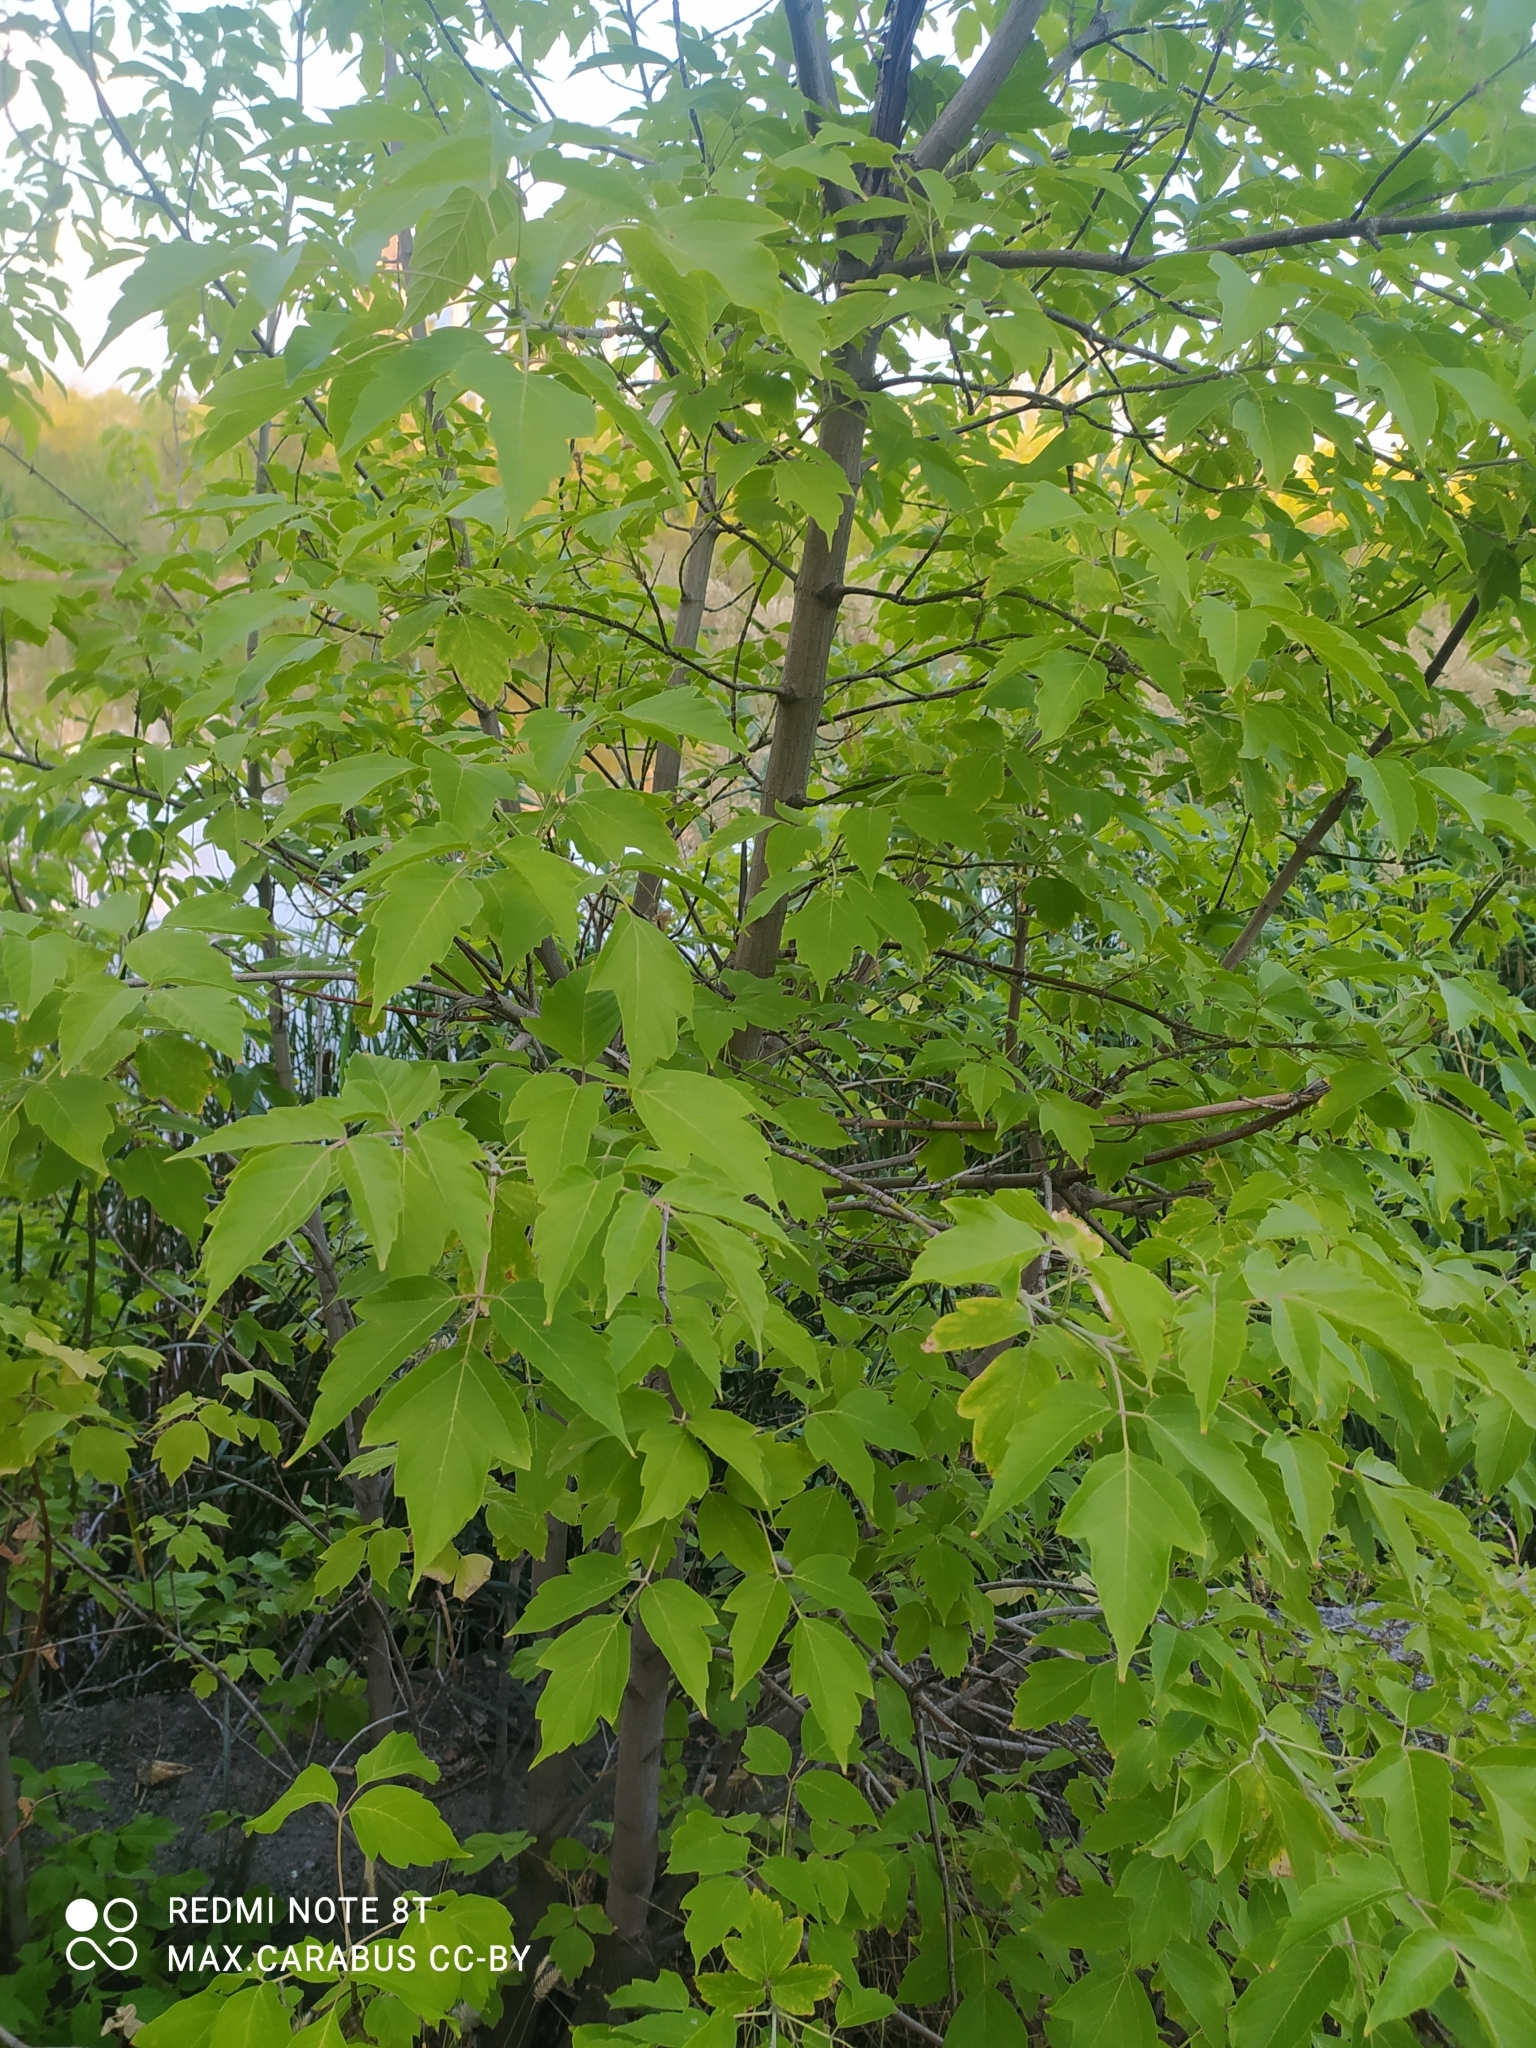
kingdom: Plantae
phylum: Tracheophyta
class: Magnoliopsida
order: Sapindales
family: Sapindaceae
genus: Acer
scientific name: Acer negundo
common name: Ashleaf maple
